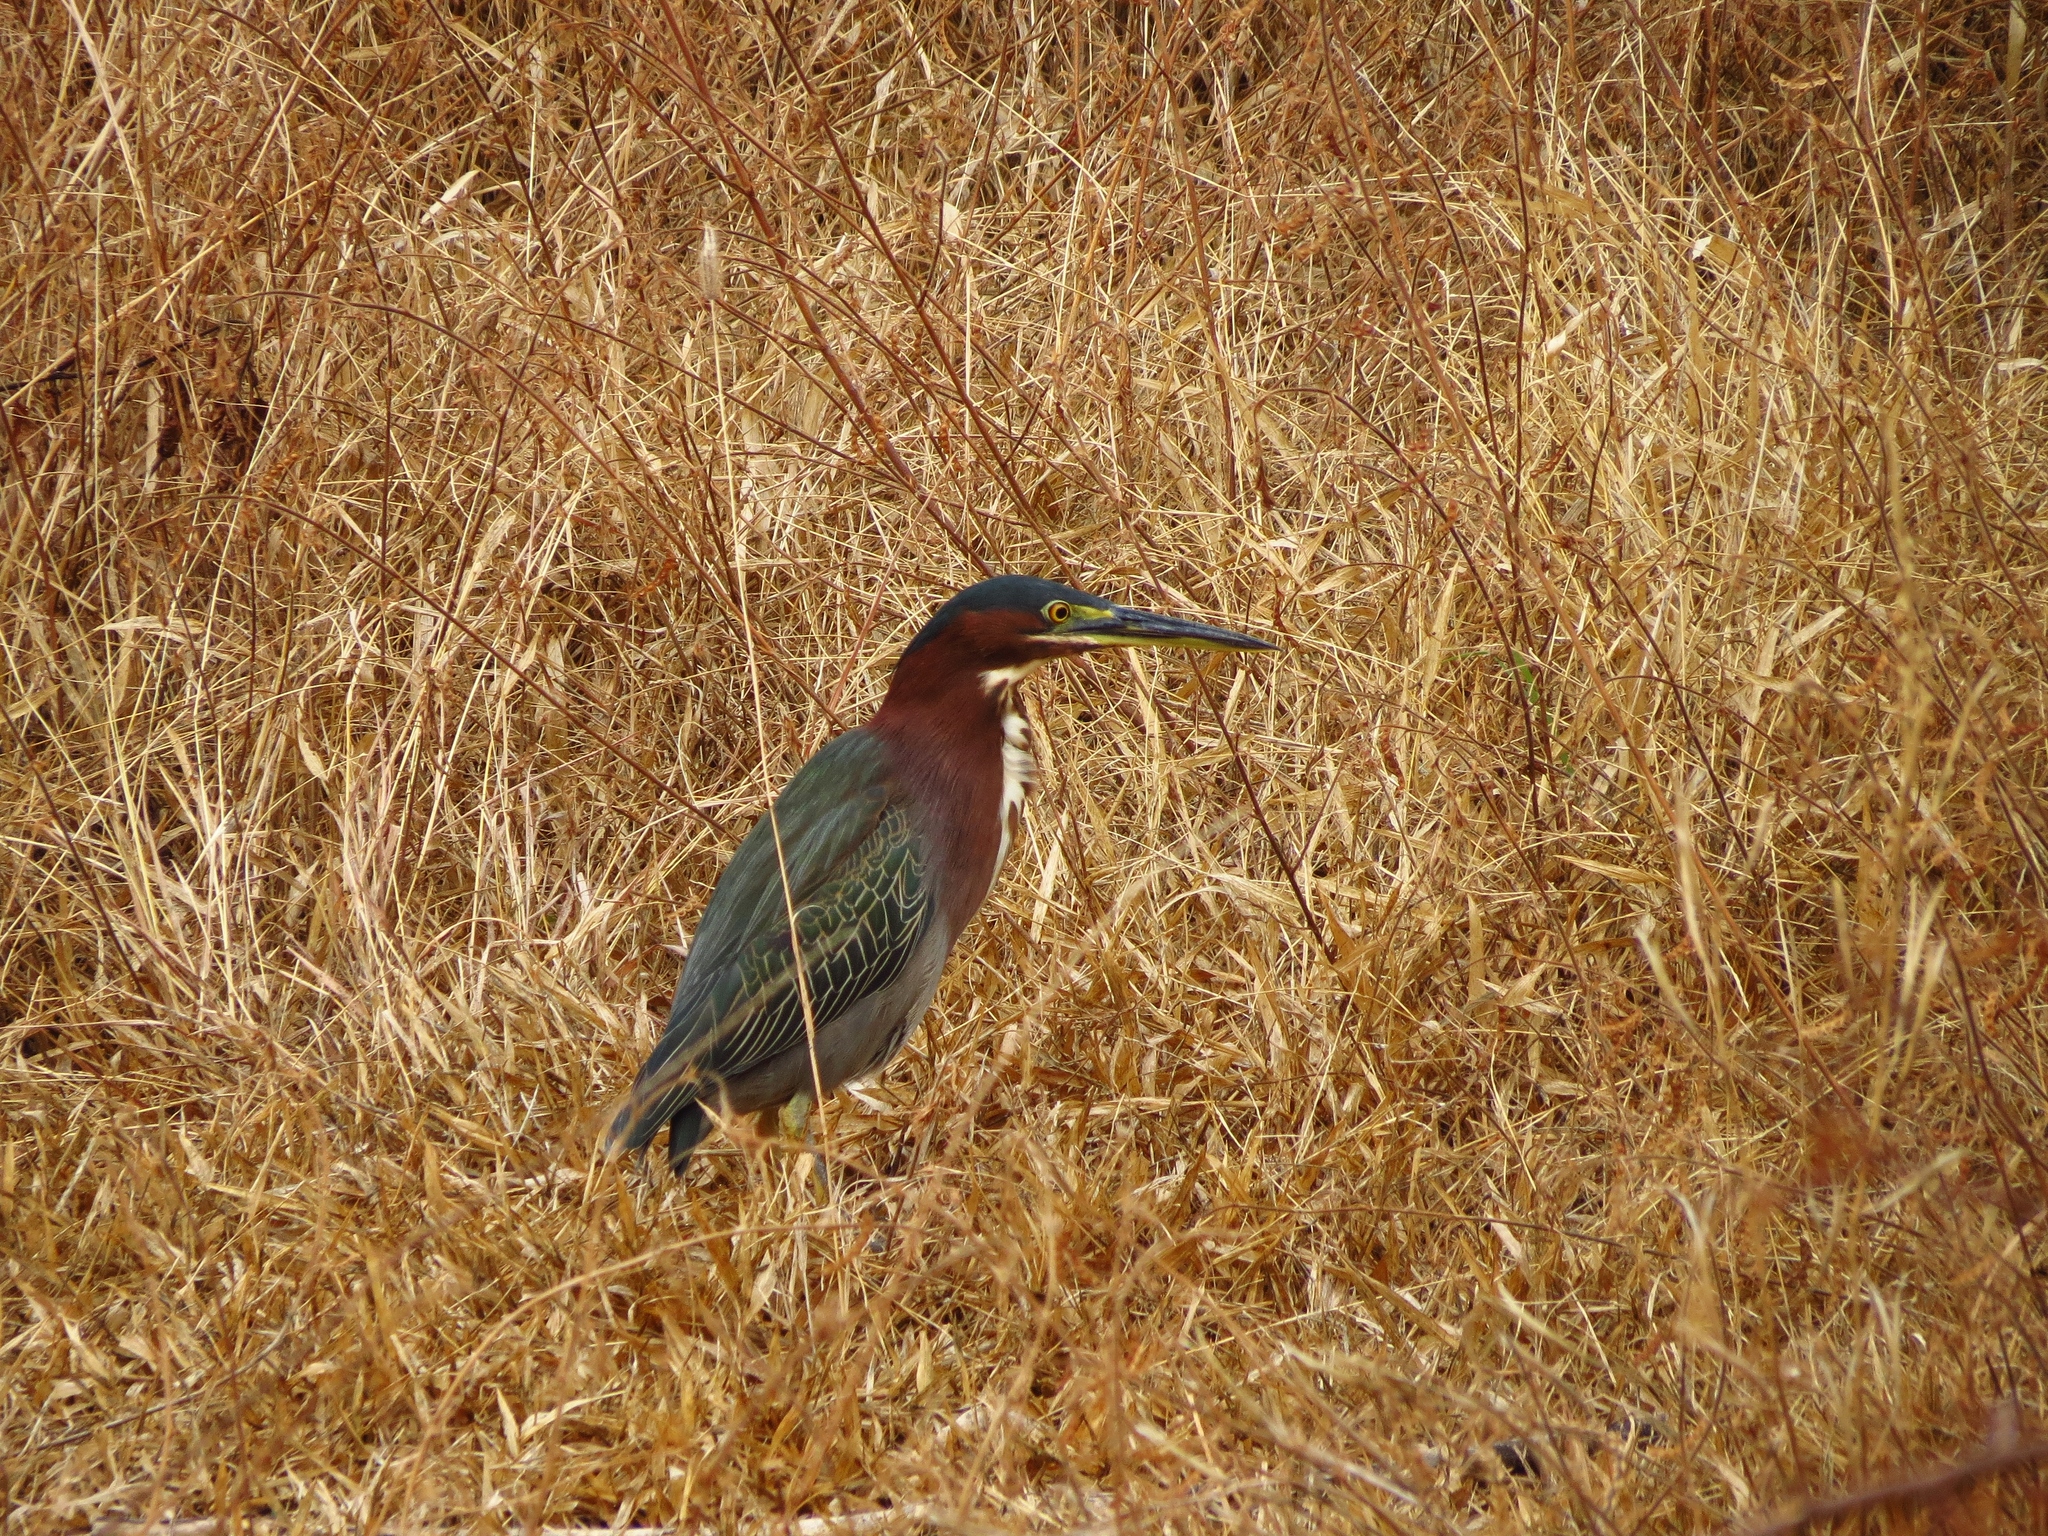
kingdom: Animalia
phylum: Chordata
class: Aves
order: Pelecaniformes
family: Ardeidae
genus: Butorides
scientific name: Butorides virescens
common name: Green heron
